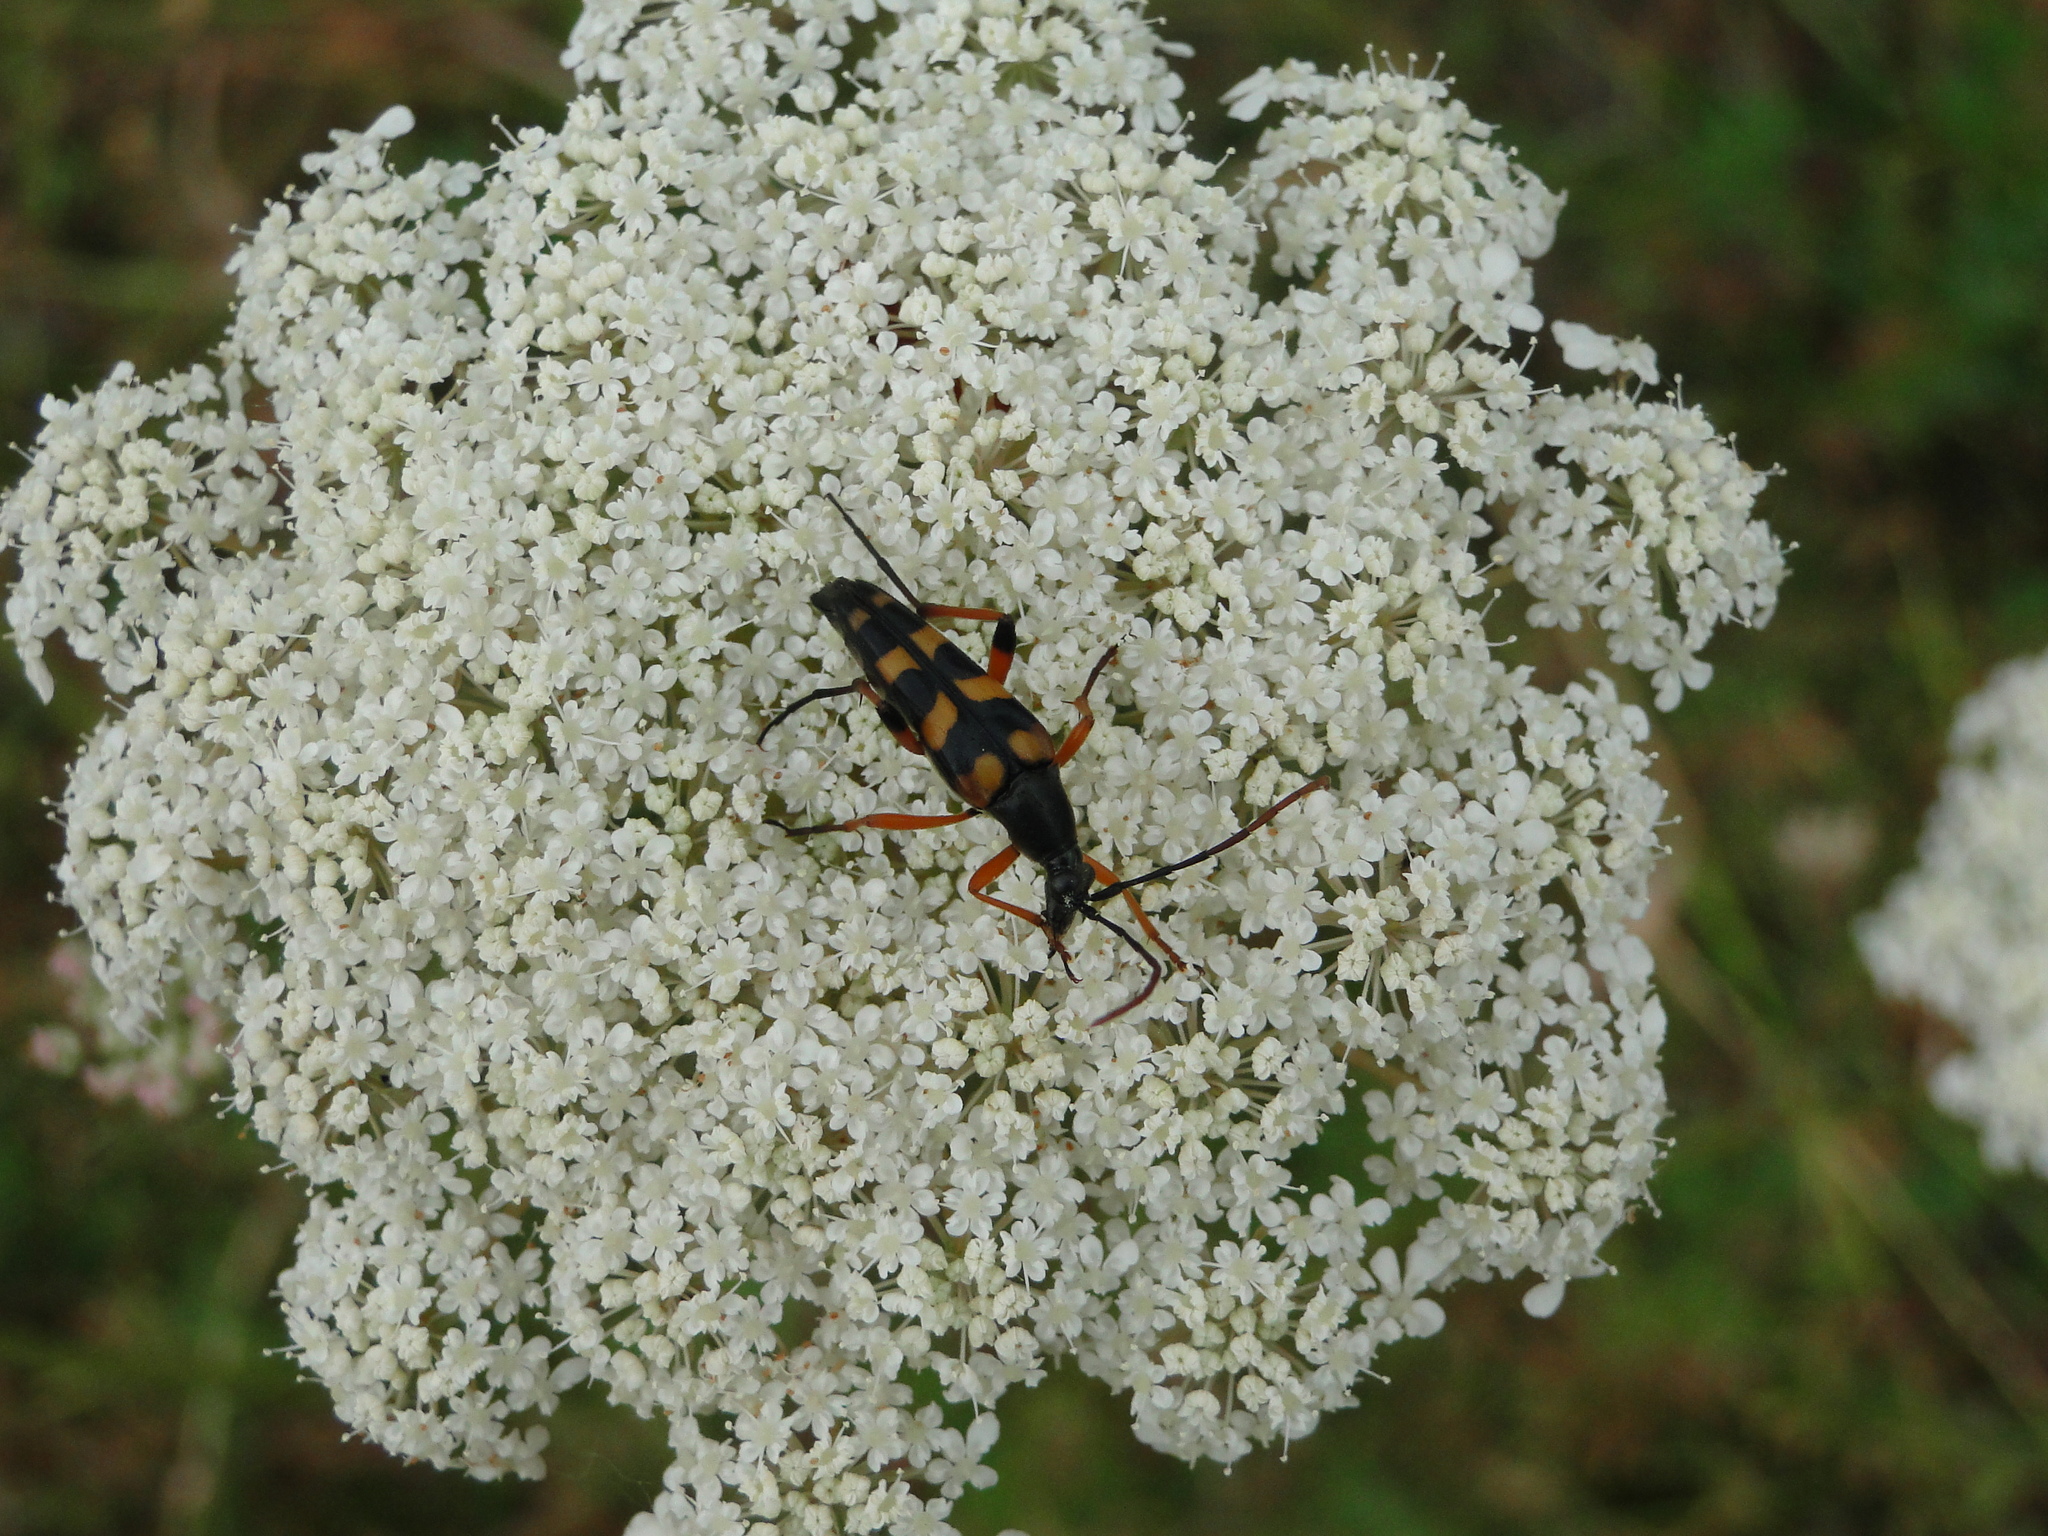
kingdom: Animalia
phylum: Arthropoda
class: Insecta
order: Coleoptera
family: Cerambycidae
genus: Strangalia
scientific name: Strangalia attenuata
